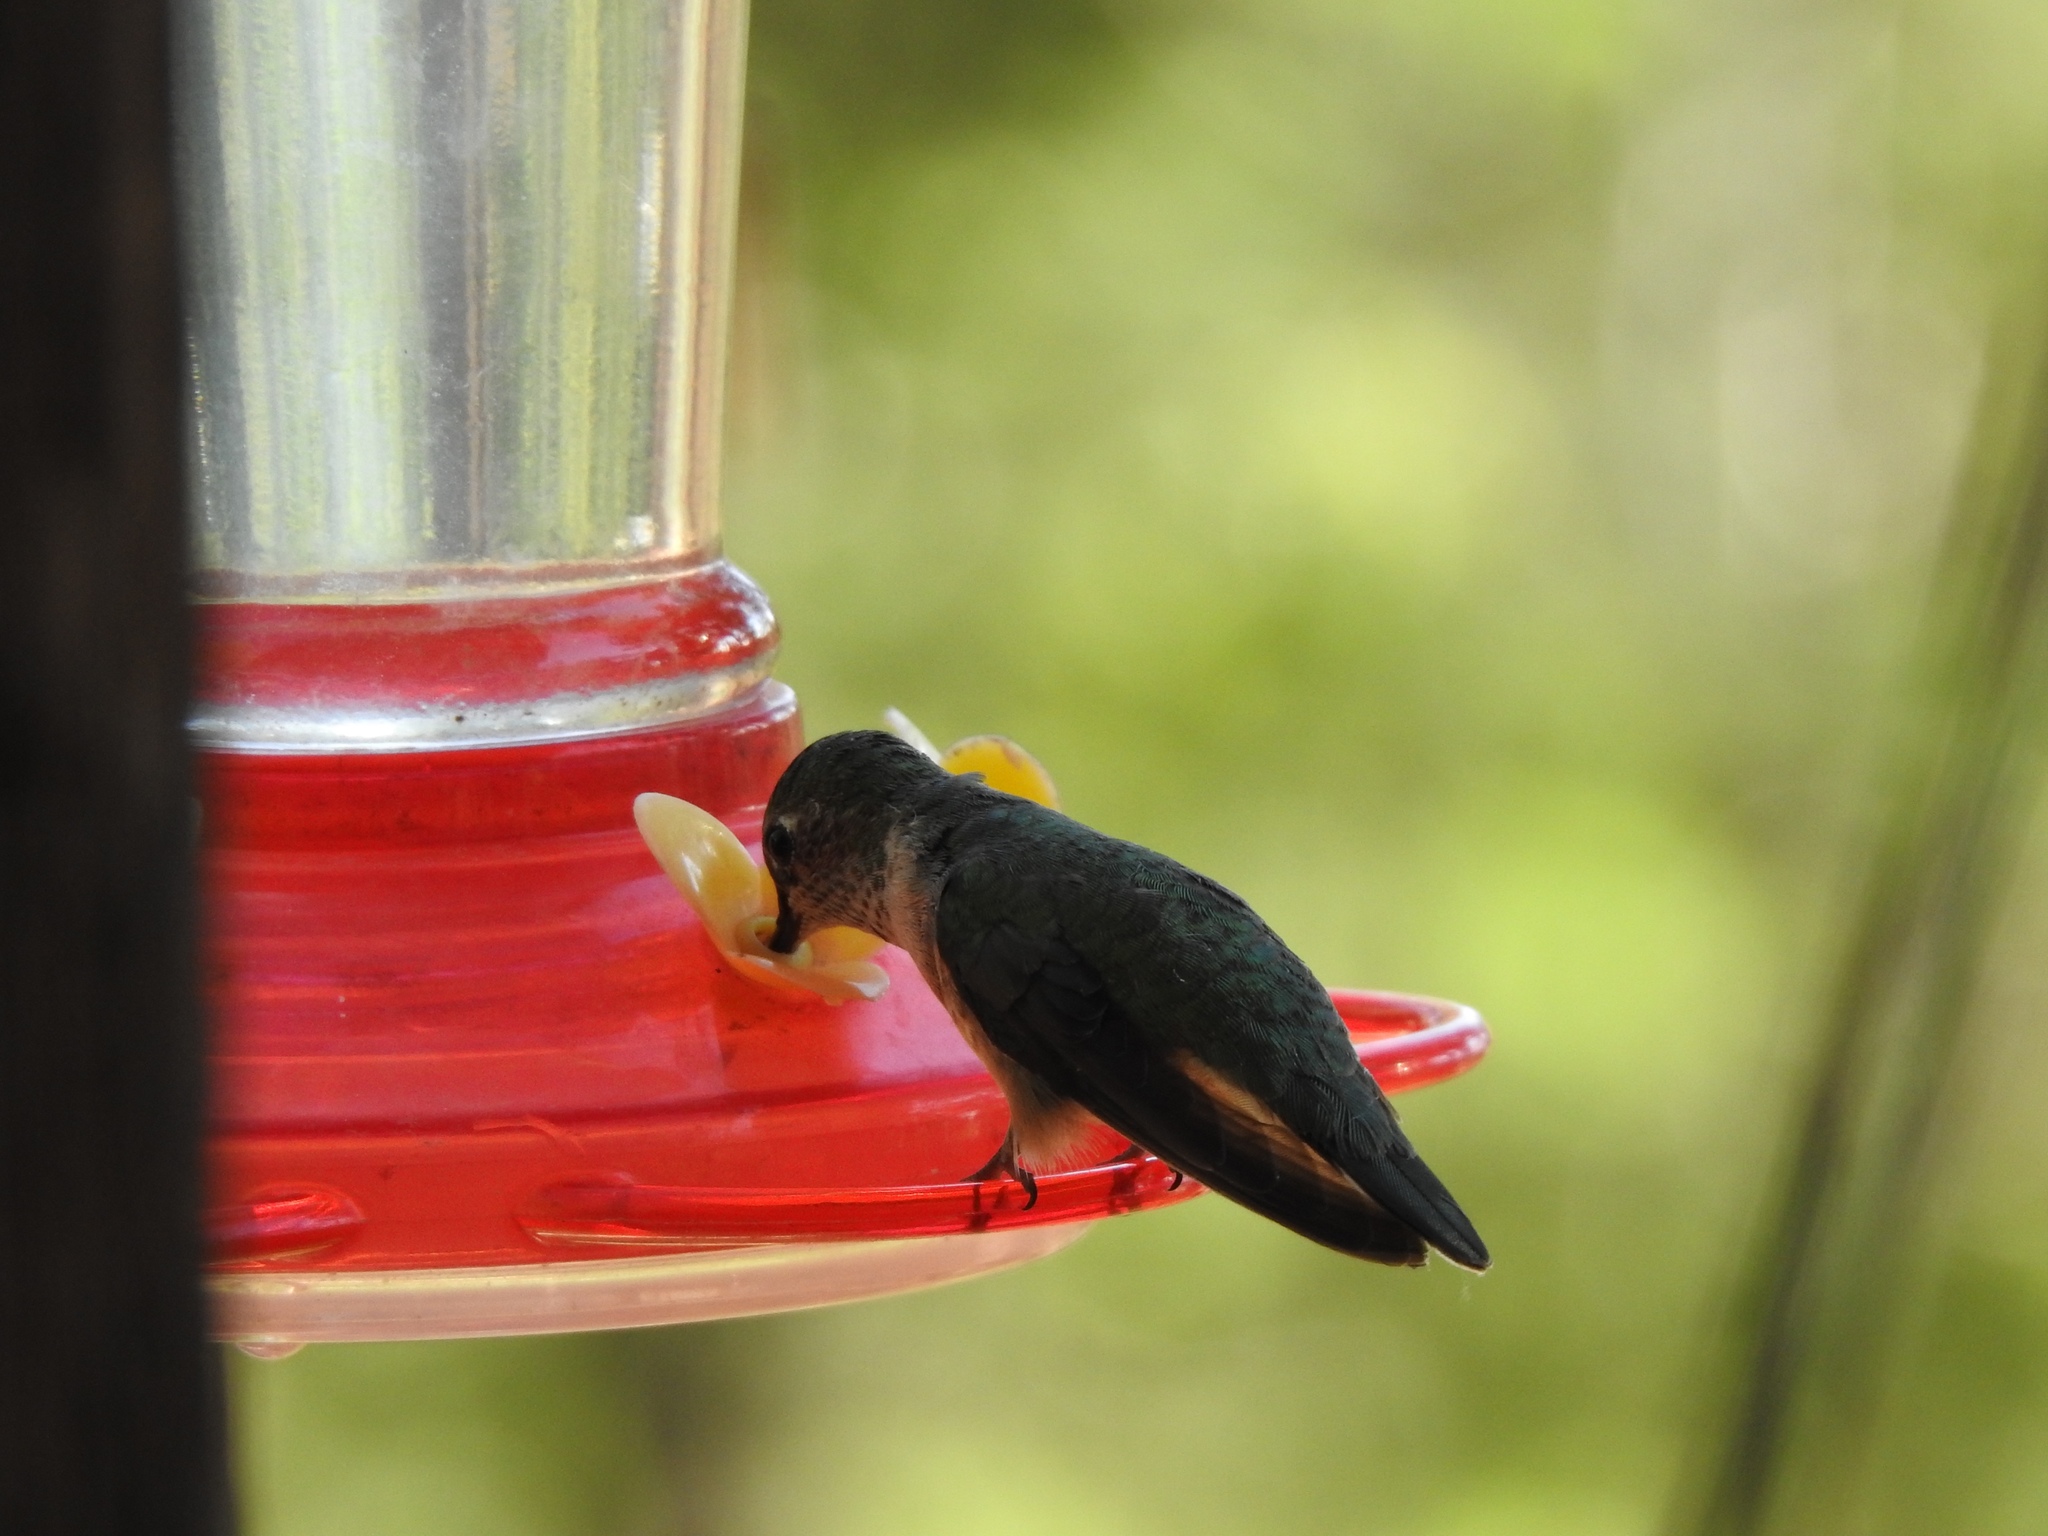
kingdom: Animalia
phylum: Chordata
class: Aves
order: Apodiformes
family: Trochilidae
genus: Selasphorus
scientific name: Selasphorus platycercus
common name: Broad-tailed hummingbird
